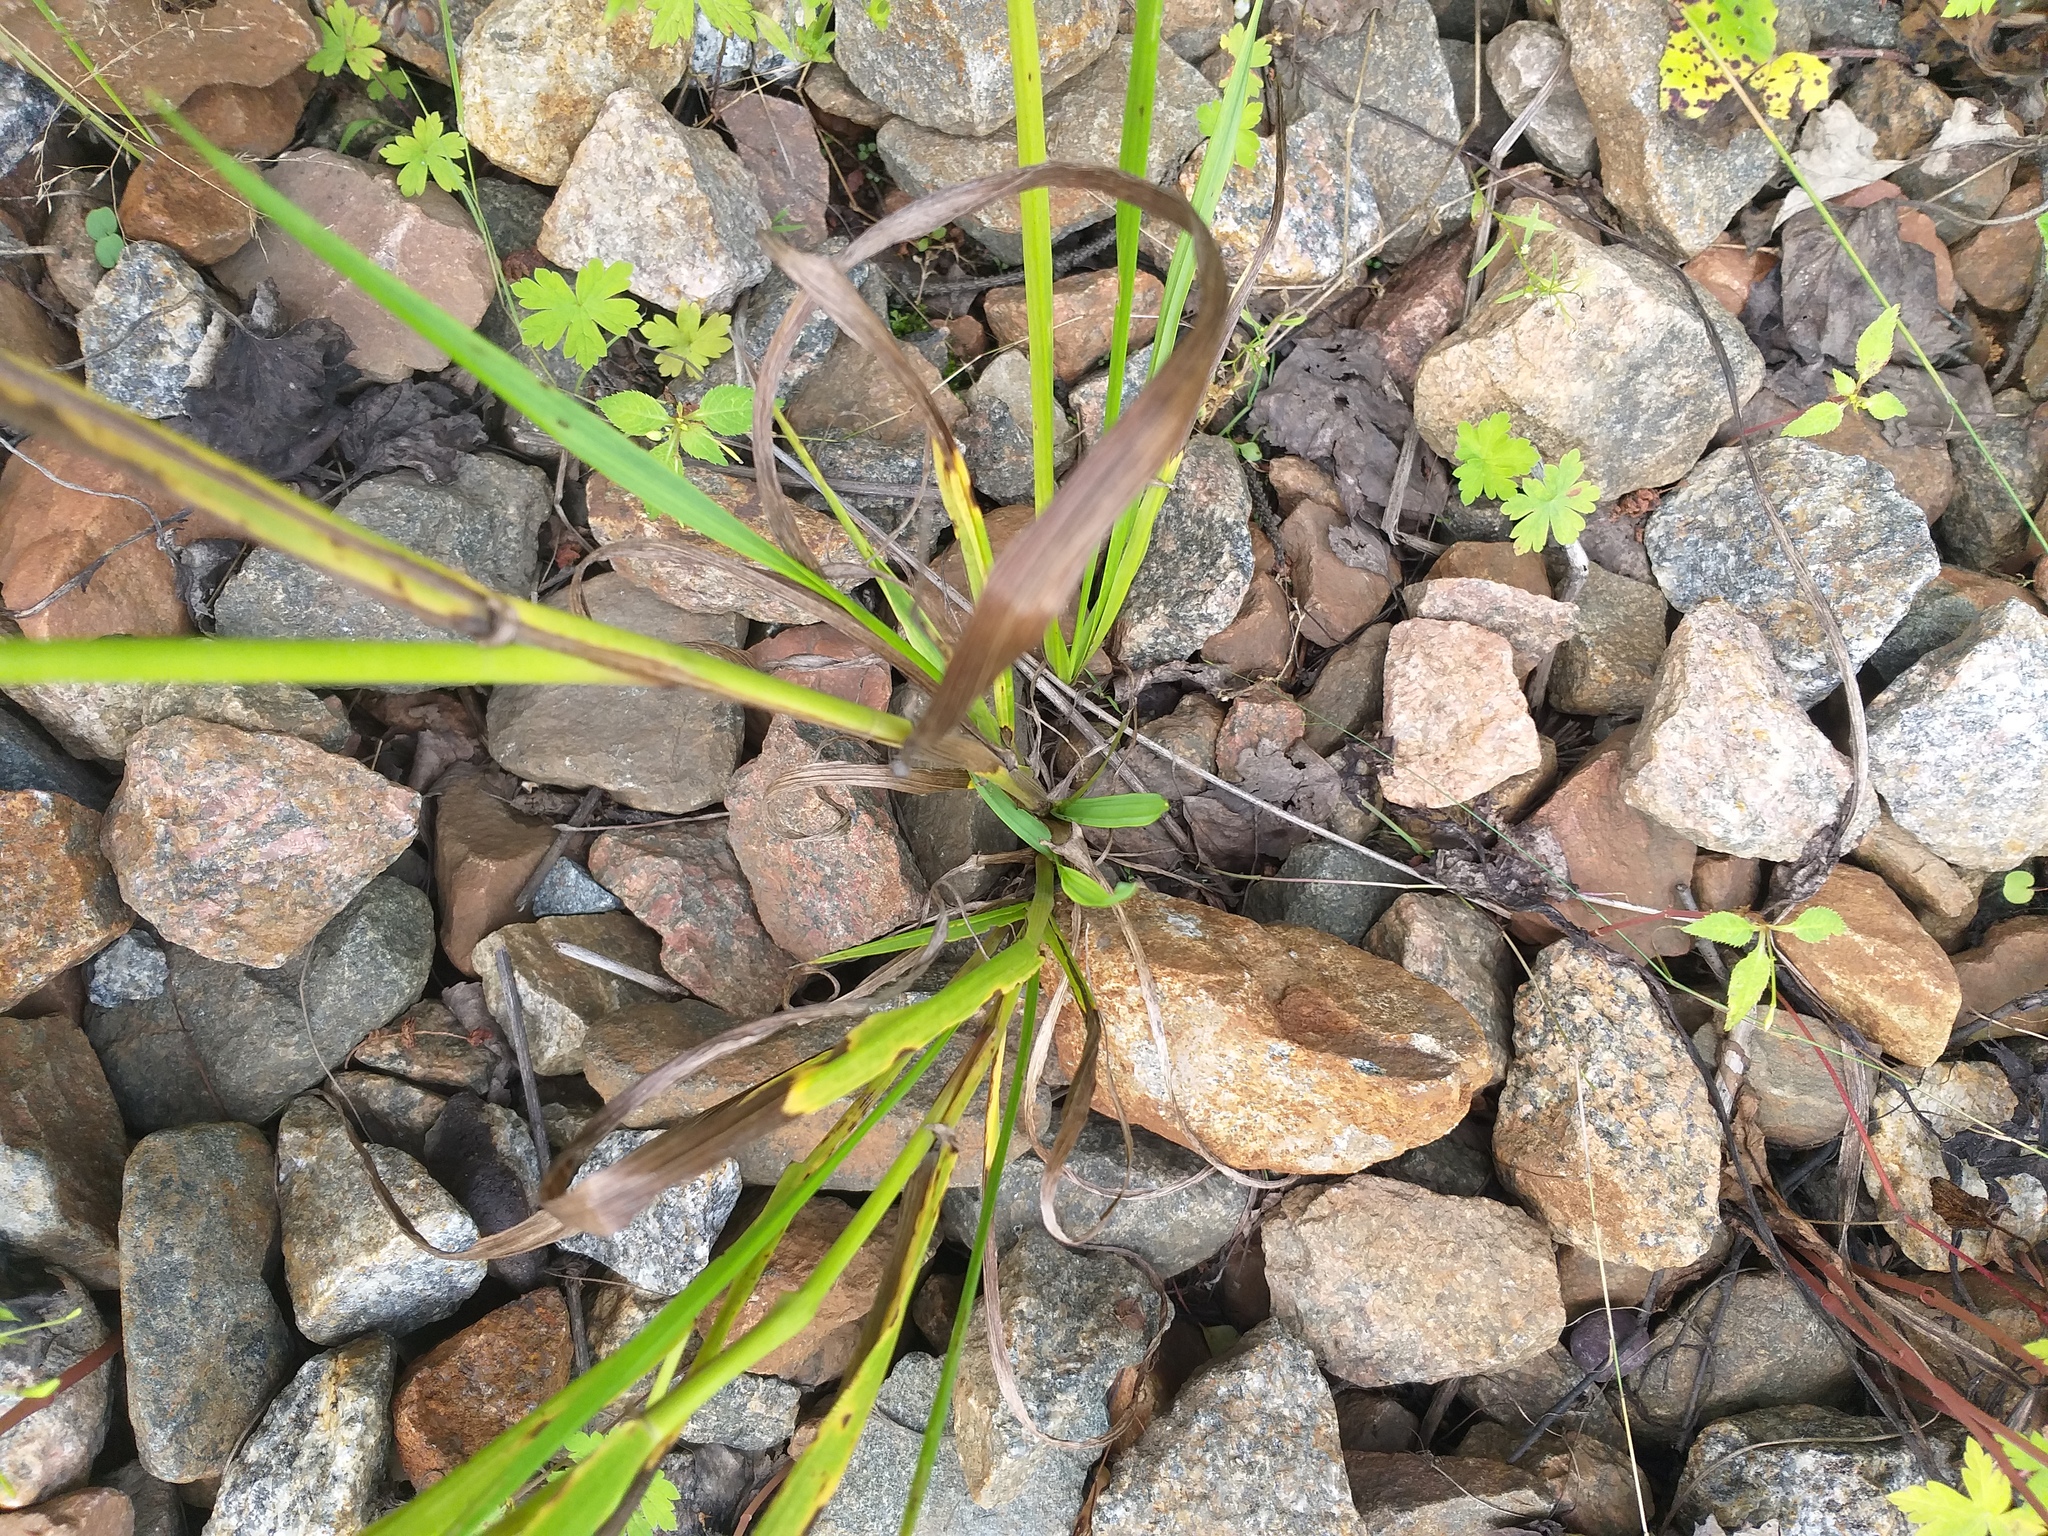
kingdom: Plantae
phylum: Tracheophyta
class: Liliopsida
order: Poales
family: Poaceae
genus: Lolium
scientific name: Lolium giganteum
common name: Giant fescue
